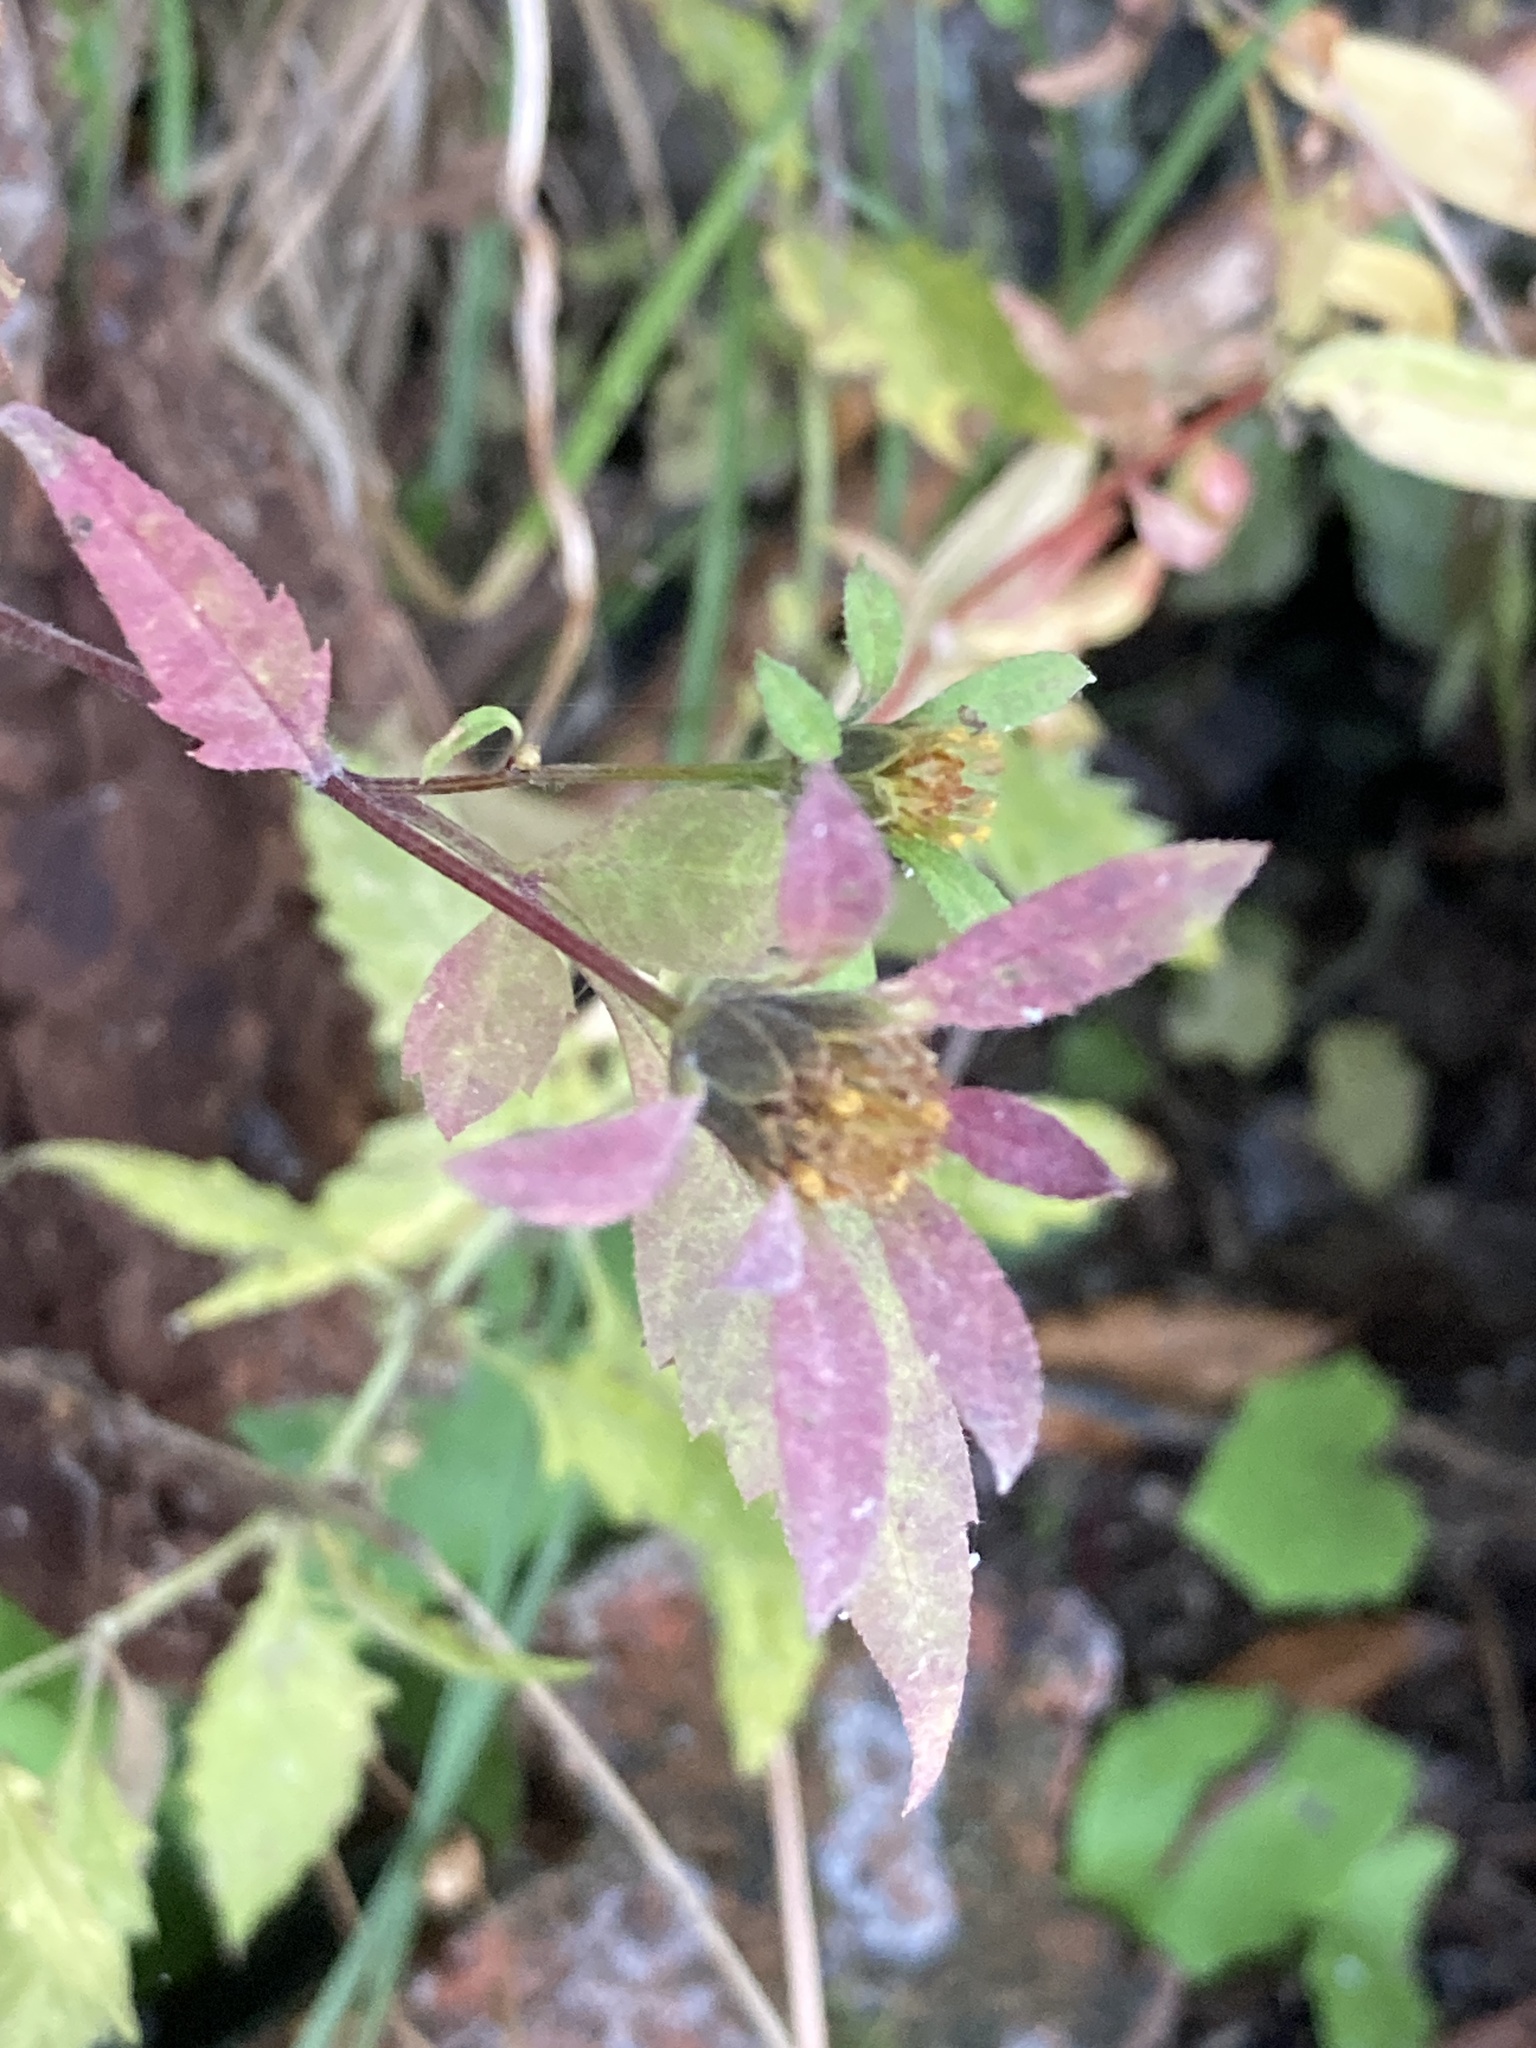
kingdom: Plantae
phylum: Tracheophyta
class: Magnoliopsida
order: Asterales
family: Asteraceae
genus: Bidens
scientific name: Bidens frondosa
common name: Beggarticks
